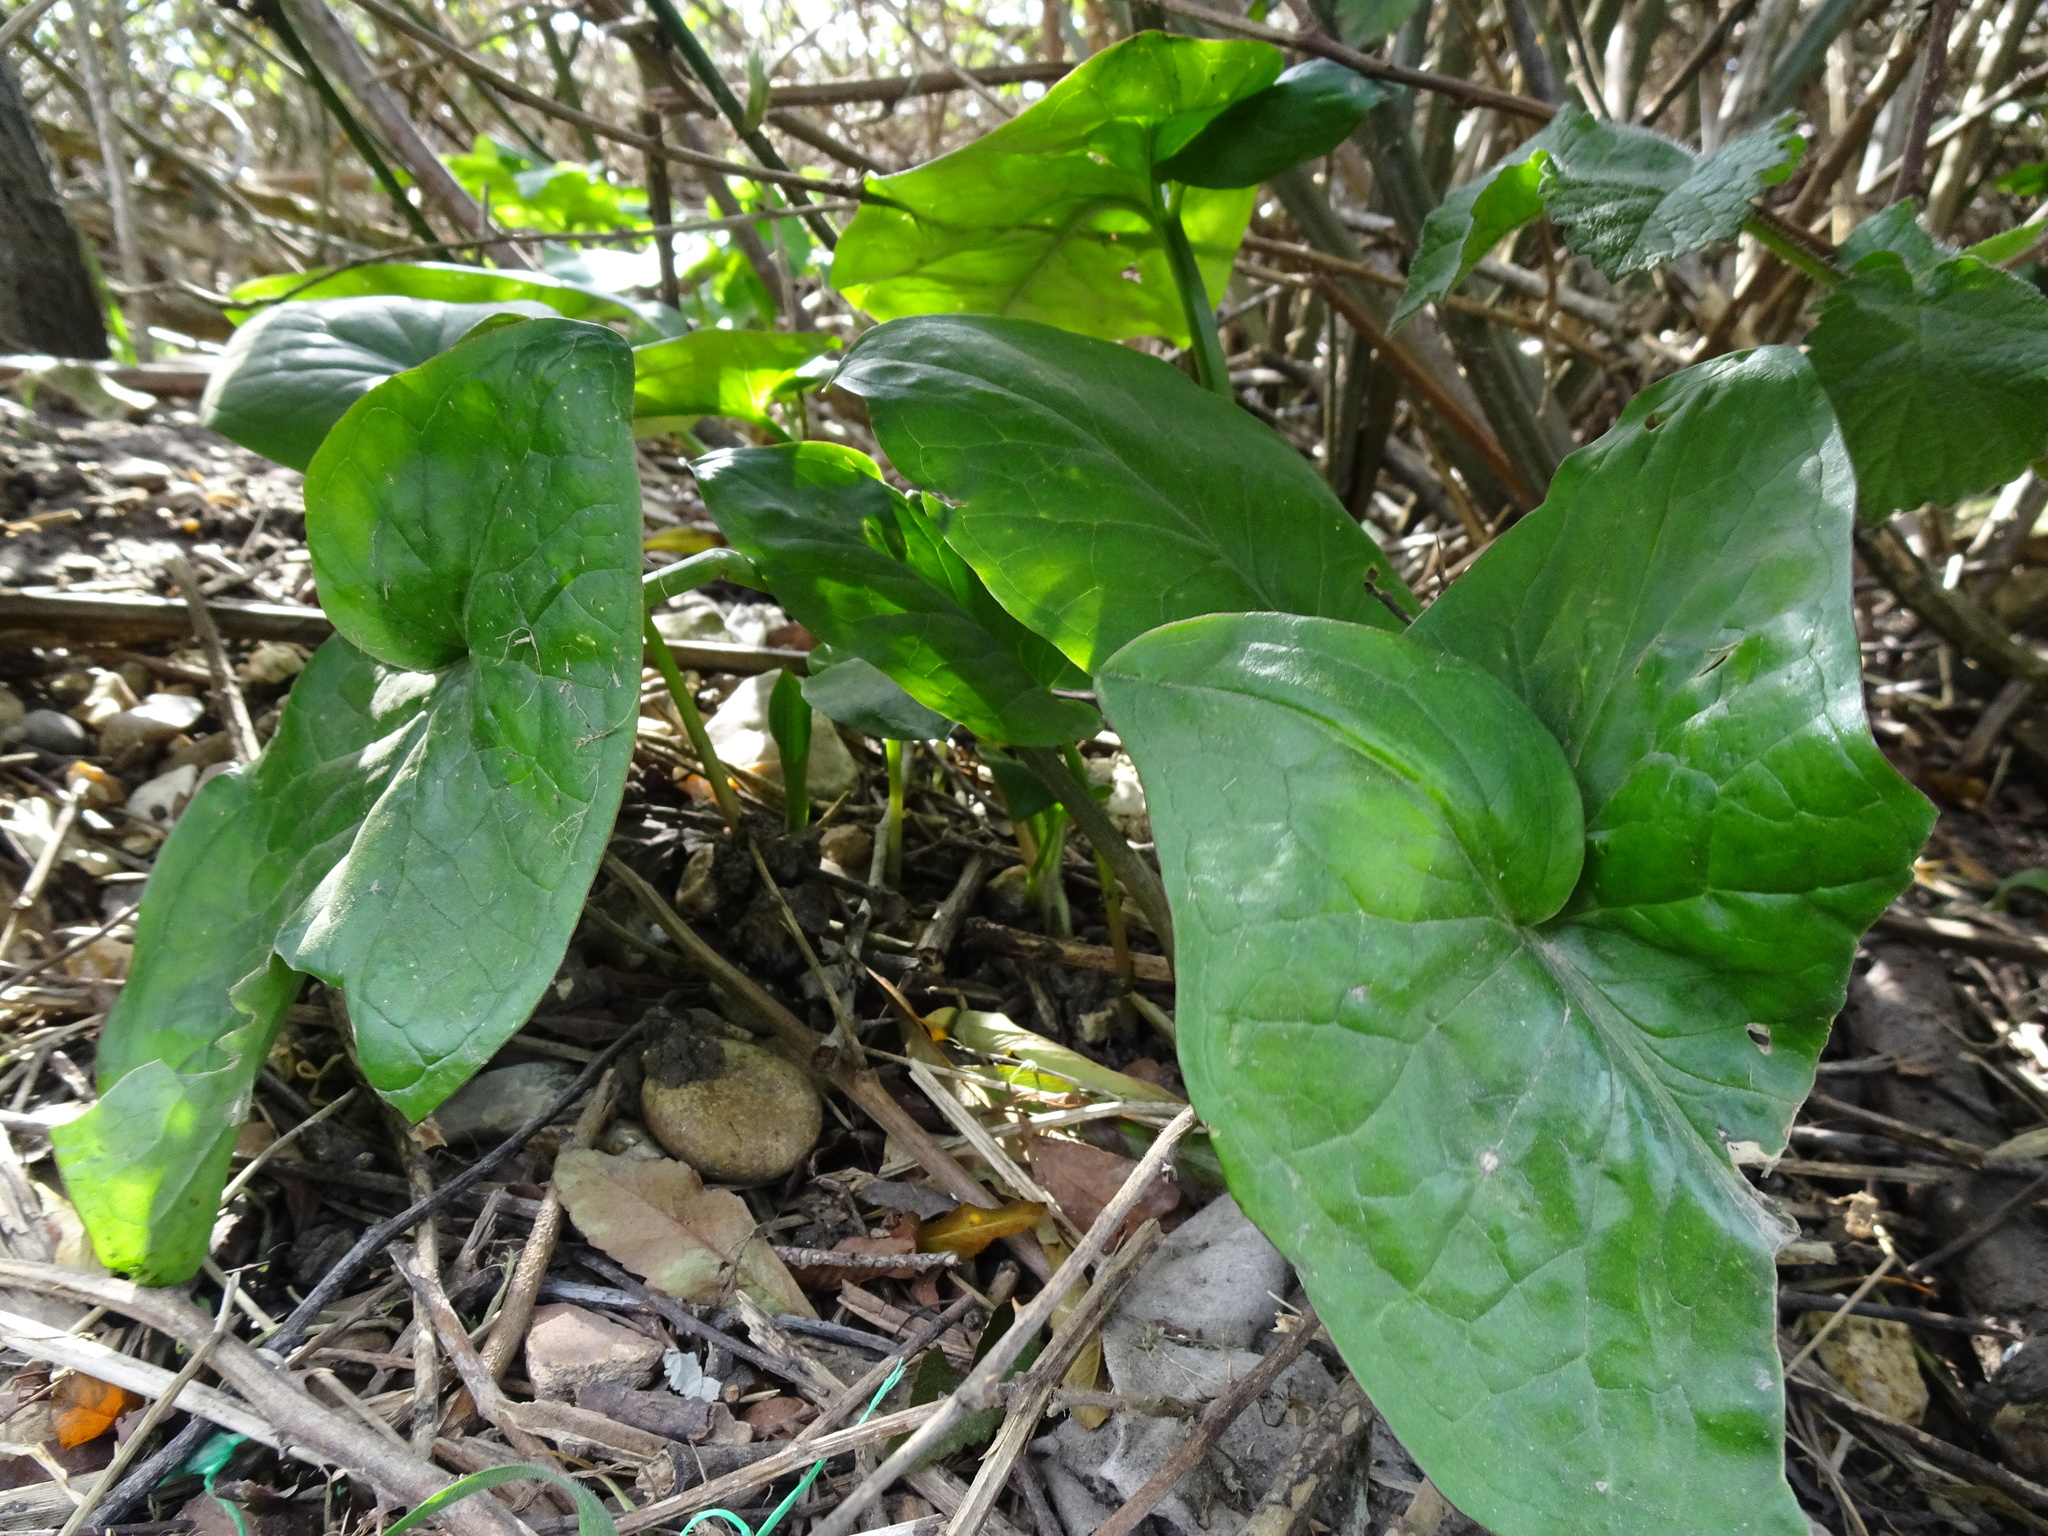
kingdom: Plantae
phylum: Tracheophyta
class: Liliopsida
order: Alismatales
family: Araceae
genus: Arum
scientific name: Arum maculatum
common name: Lords-and-ladies
